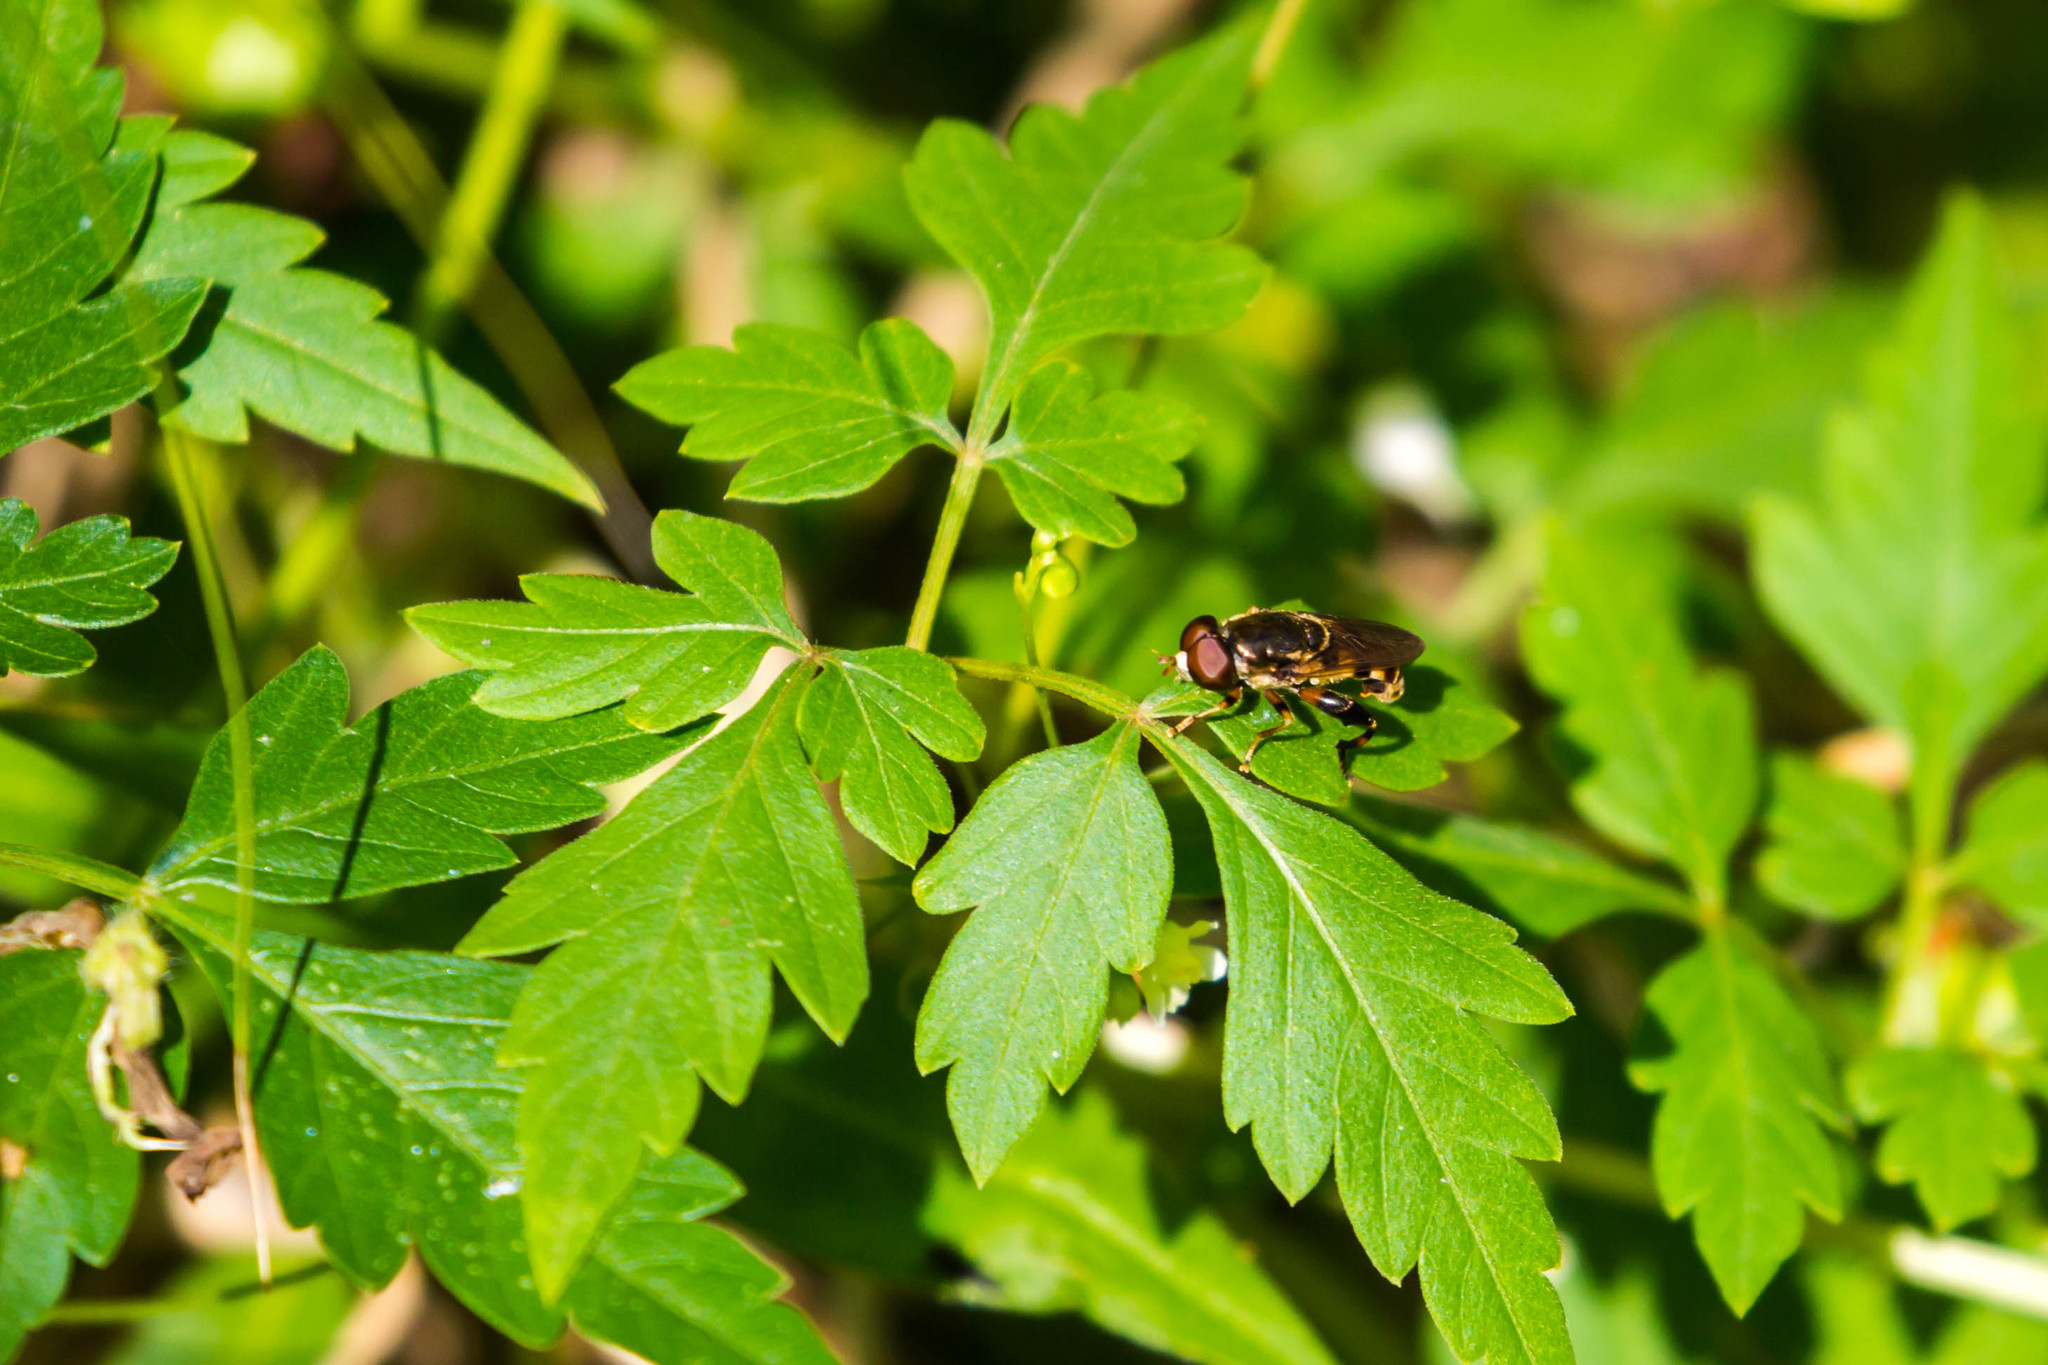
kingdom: Animalia
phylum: Arthropoda
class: Insecta
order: Diptera
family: Syrphidae
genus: Tropidia
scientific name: Tropidia albistylum
